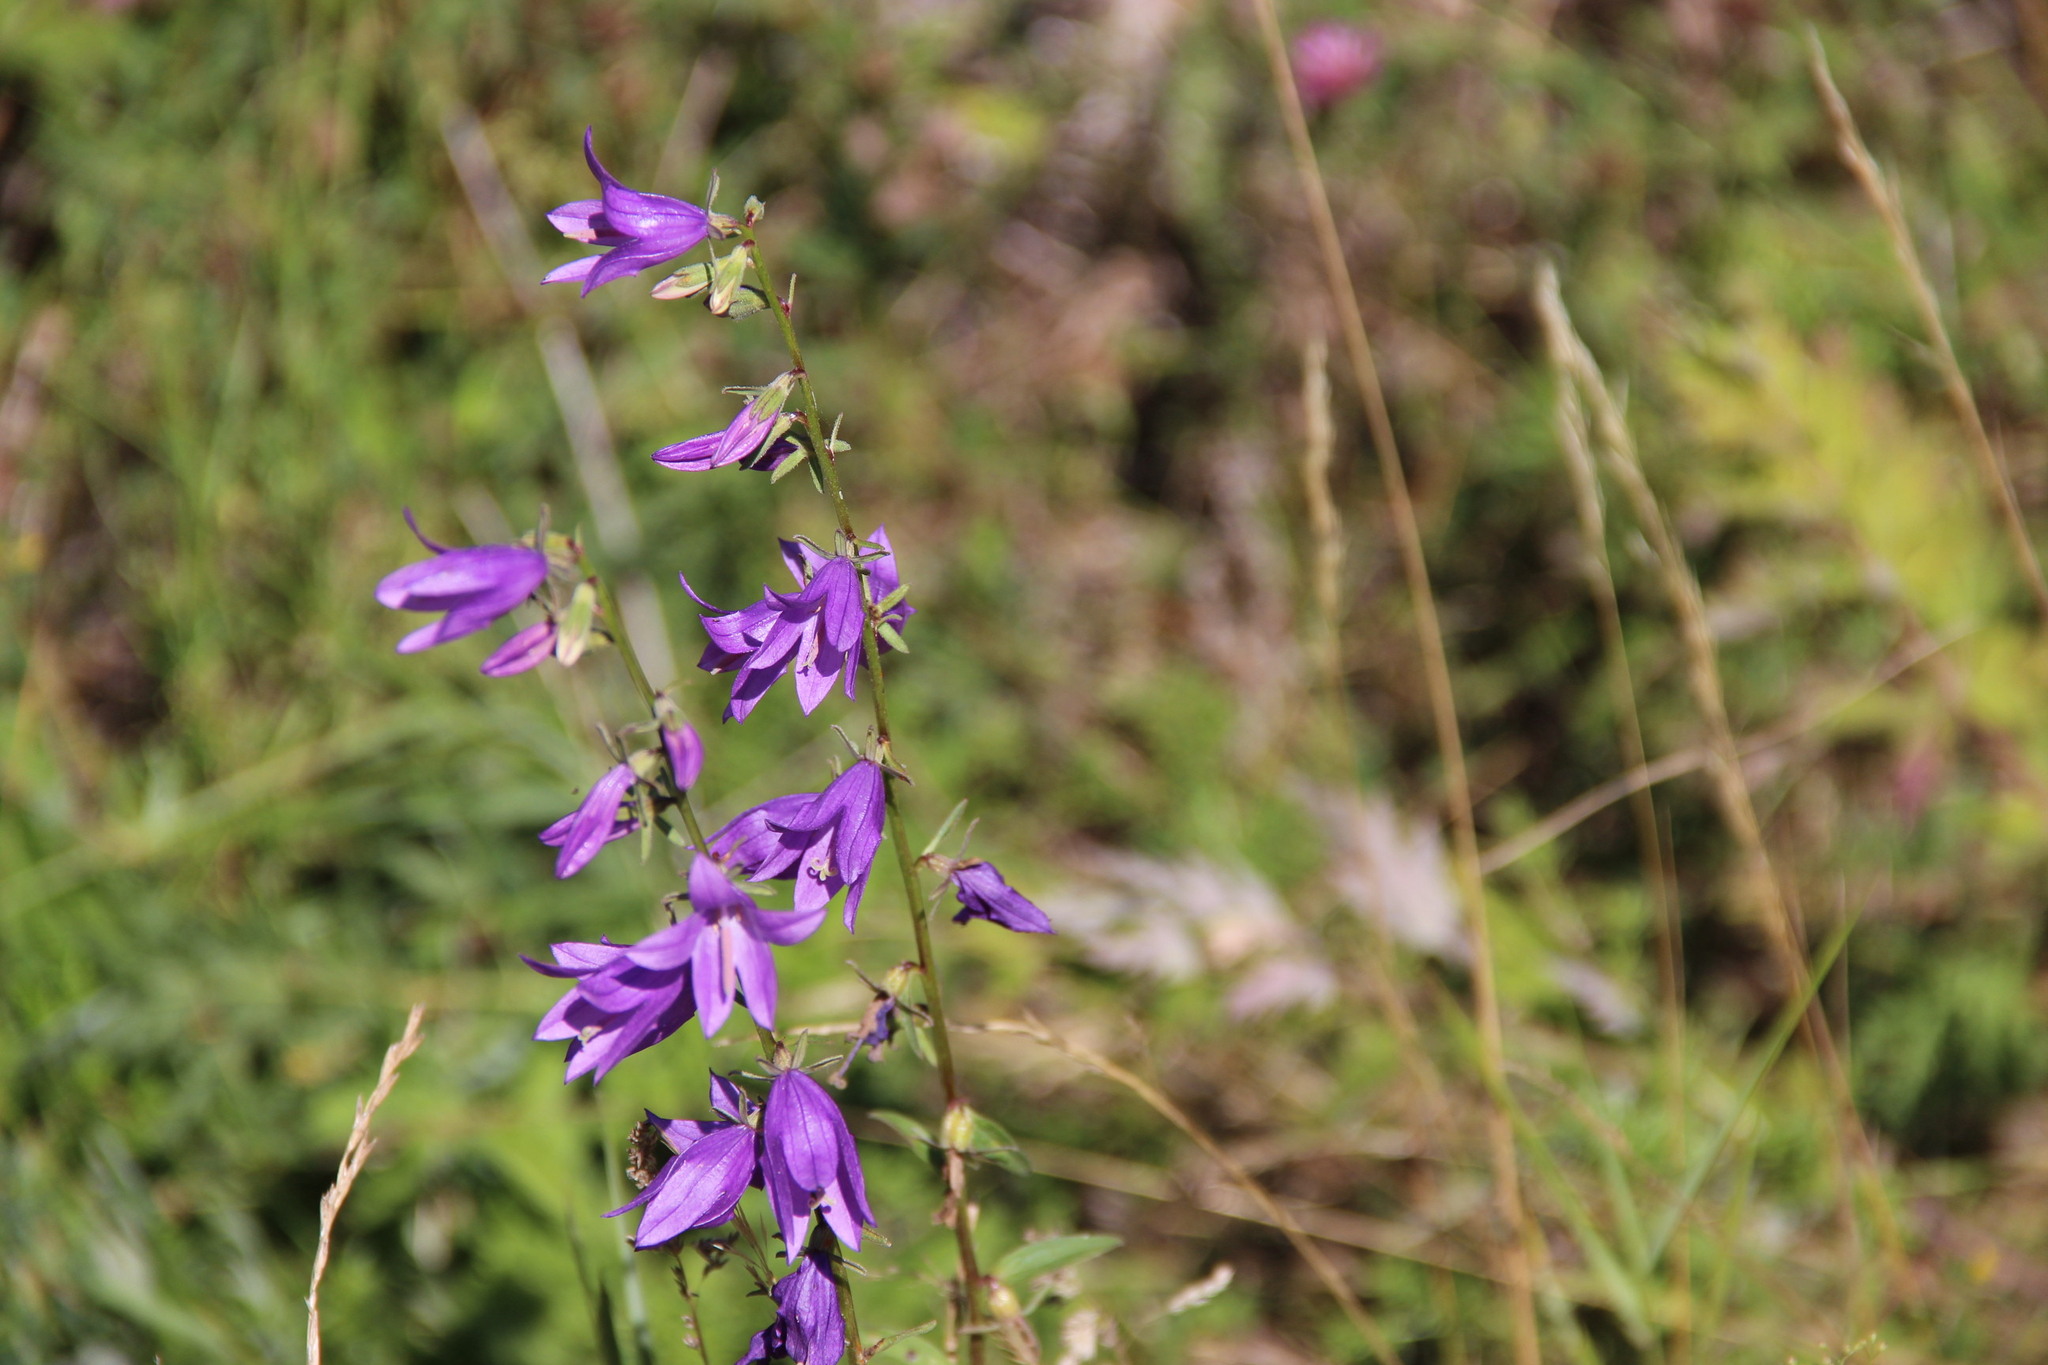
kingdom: Plantae
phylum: Tracheophyta
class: Magnoliopsida
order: Asterales
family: Campanulaceae
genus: Campanula
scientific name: Campanula rapunculoides
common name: Creeping bellflower
